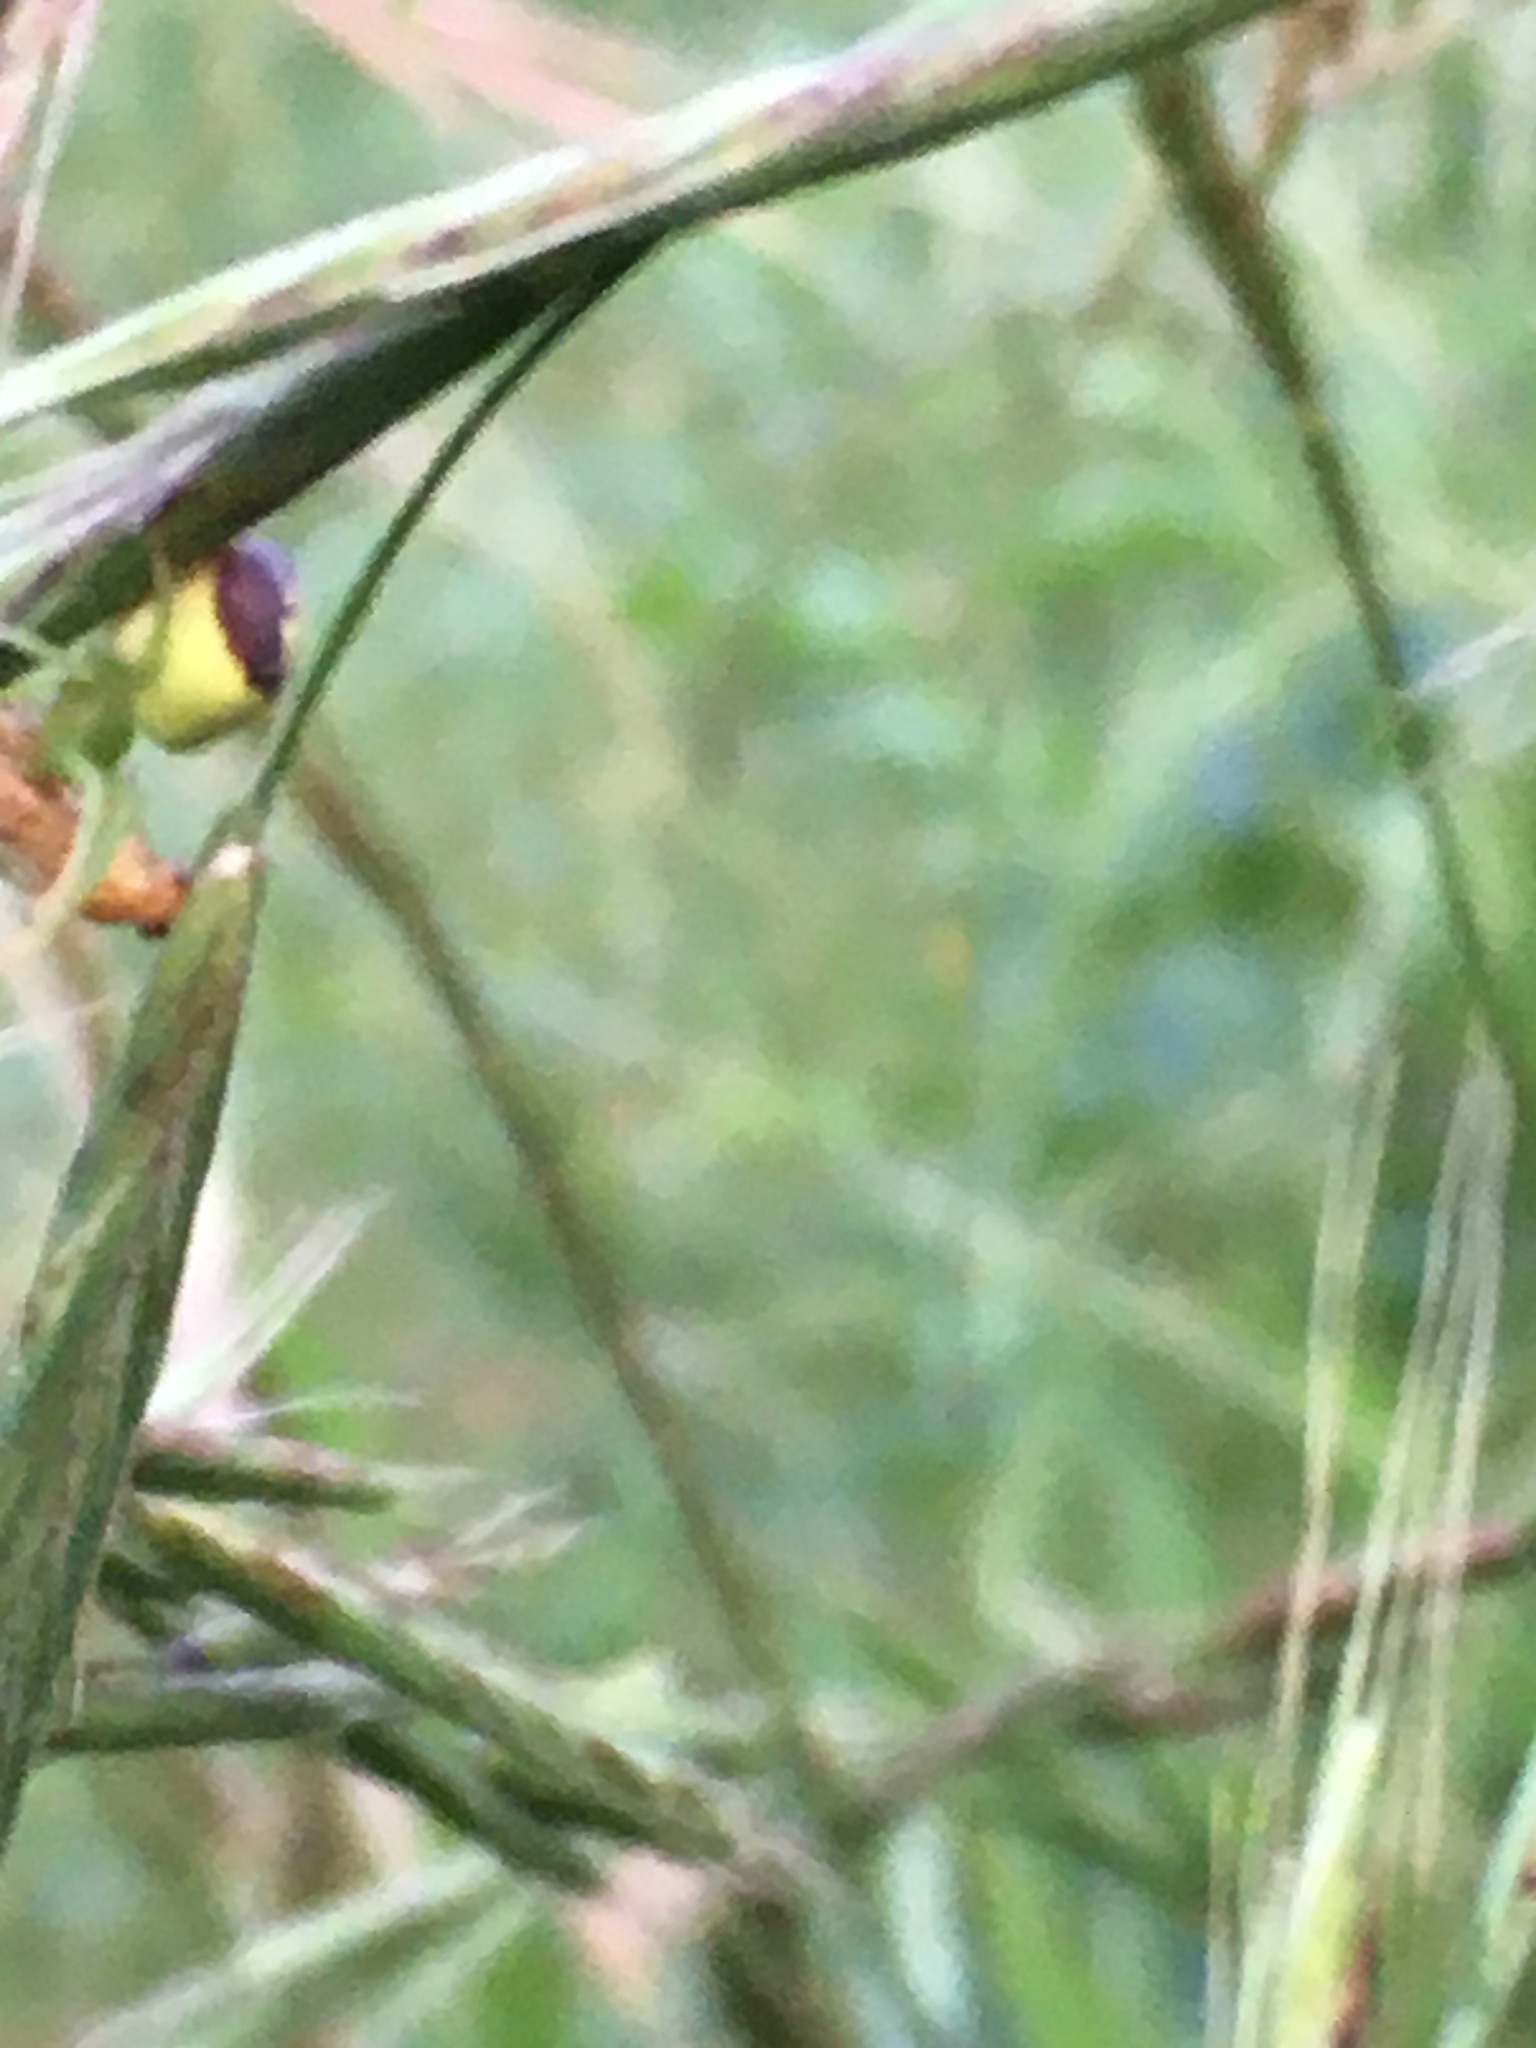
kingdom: Animalia
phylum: Arthropoda
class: Arachnida
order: Araneae
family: Thomisidae
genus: Ebrechtella
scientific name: Ebrechtella tricuspidata
